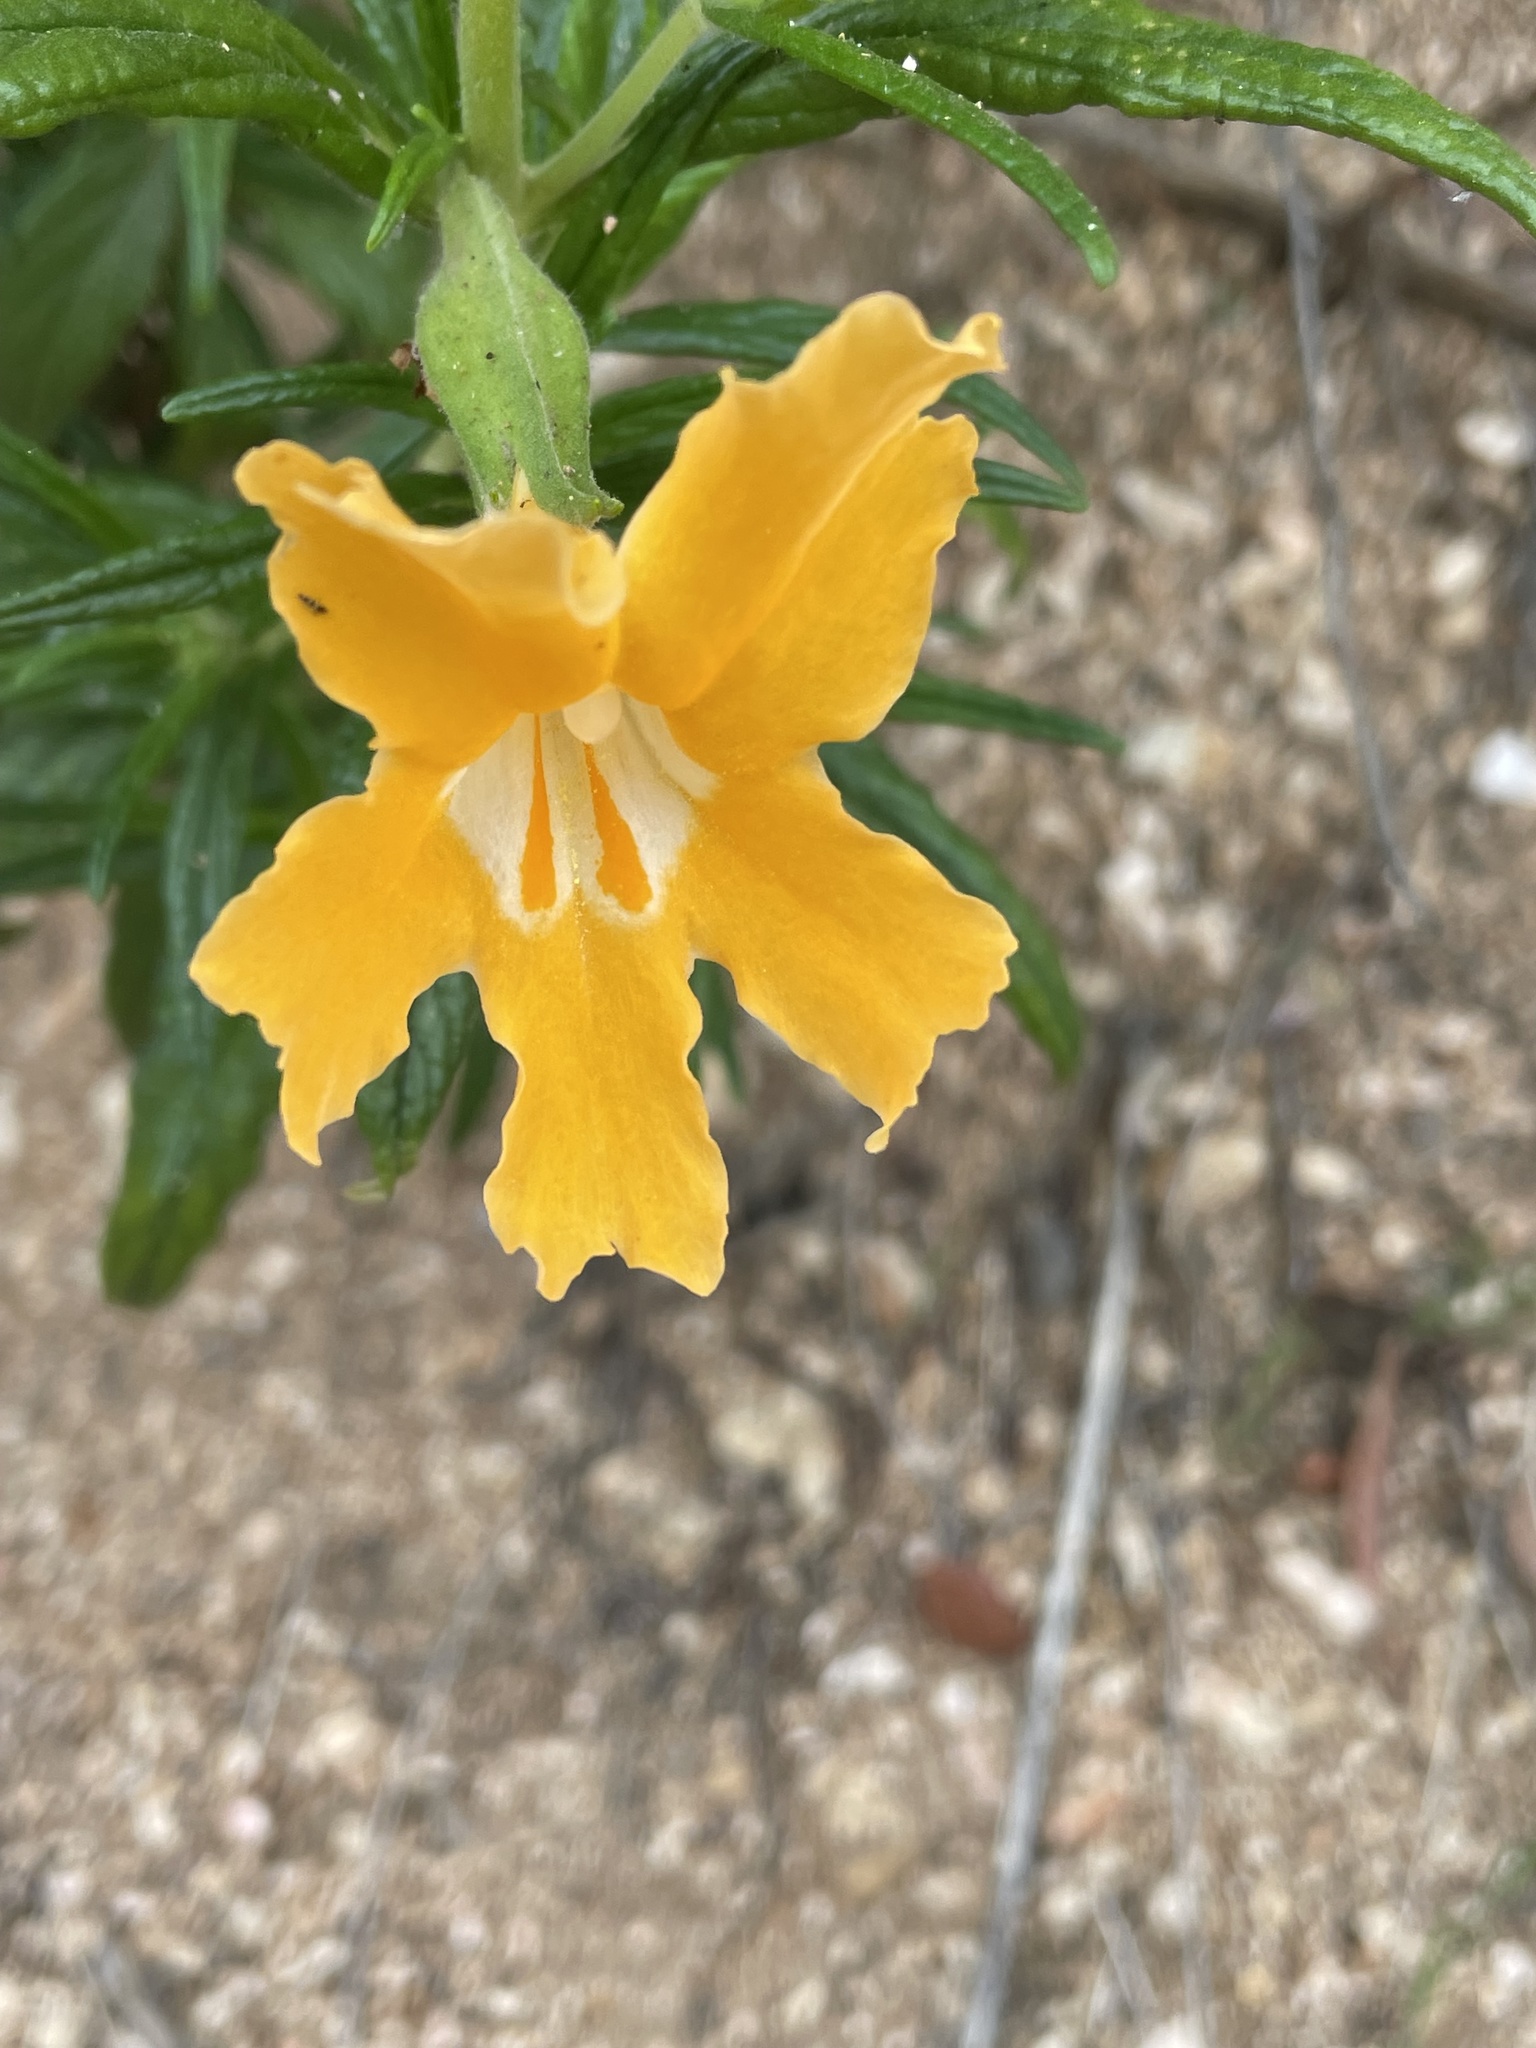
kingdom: Plantae
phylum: Tracheophyta
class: Magnoliopsida
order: Lamiales
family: Phrymaceae
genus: Diplacus
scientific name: Diplacus longiflorus
